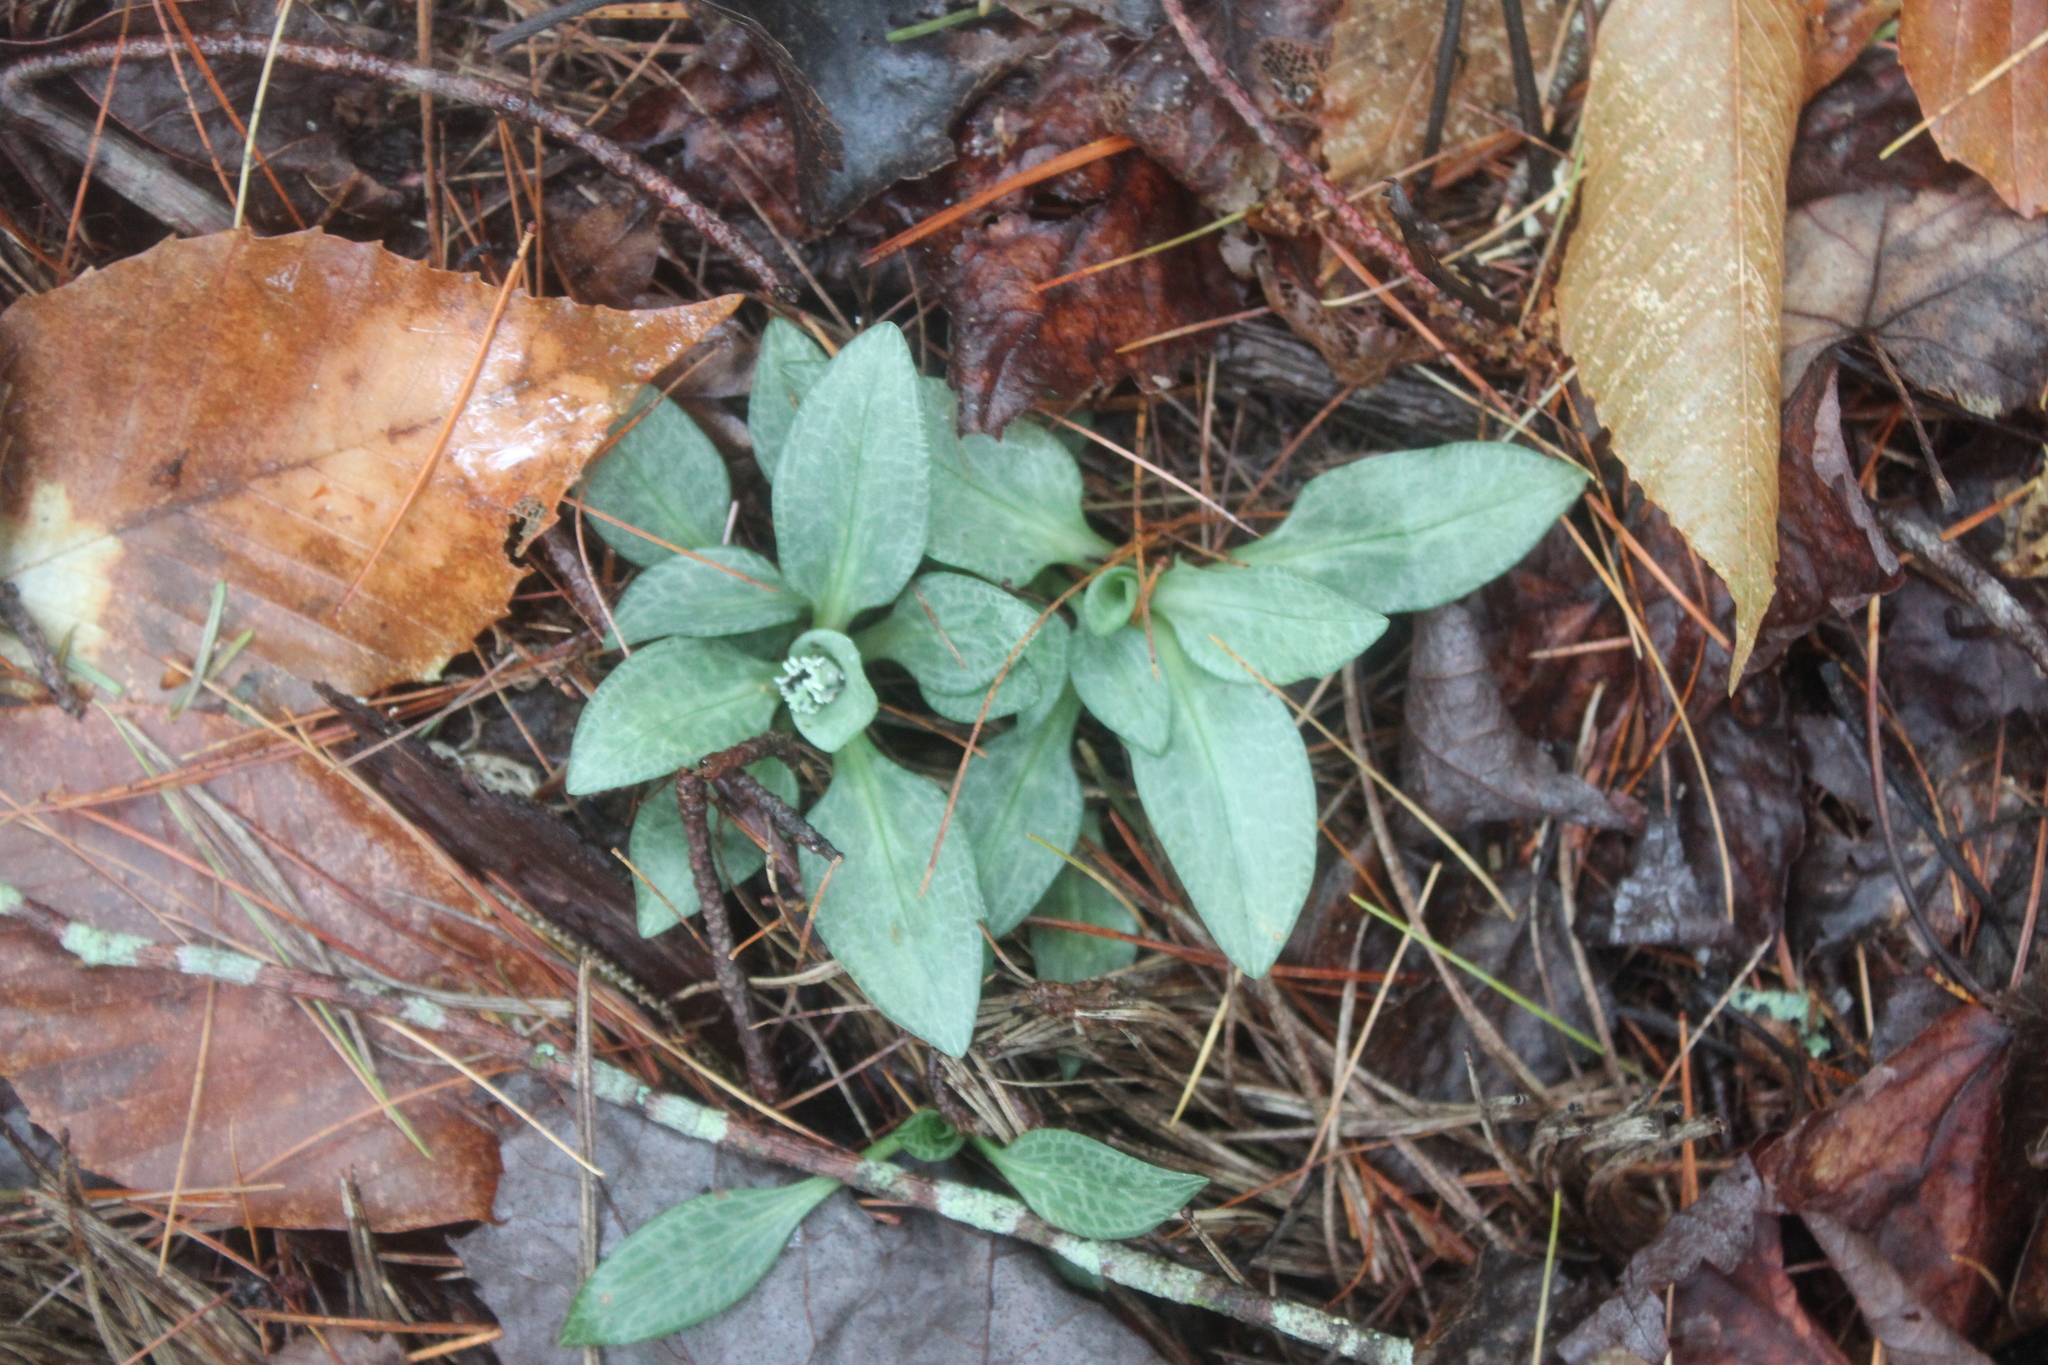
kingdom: Plantae
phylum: Tracheophyta
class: Liliopsida
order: Asparagales
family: Orchidaceae
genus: Goodyera
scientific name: Goodyera tesselata
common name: Checkered rattlesnake-plantain
